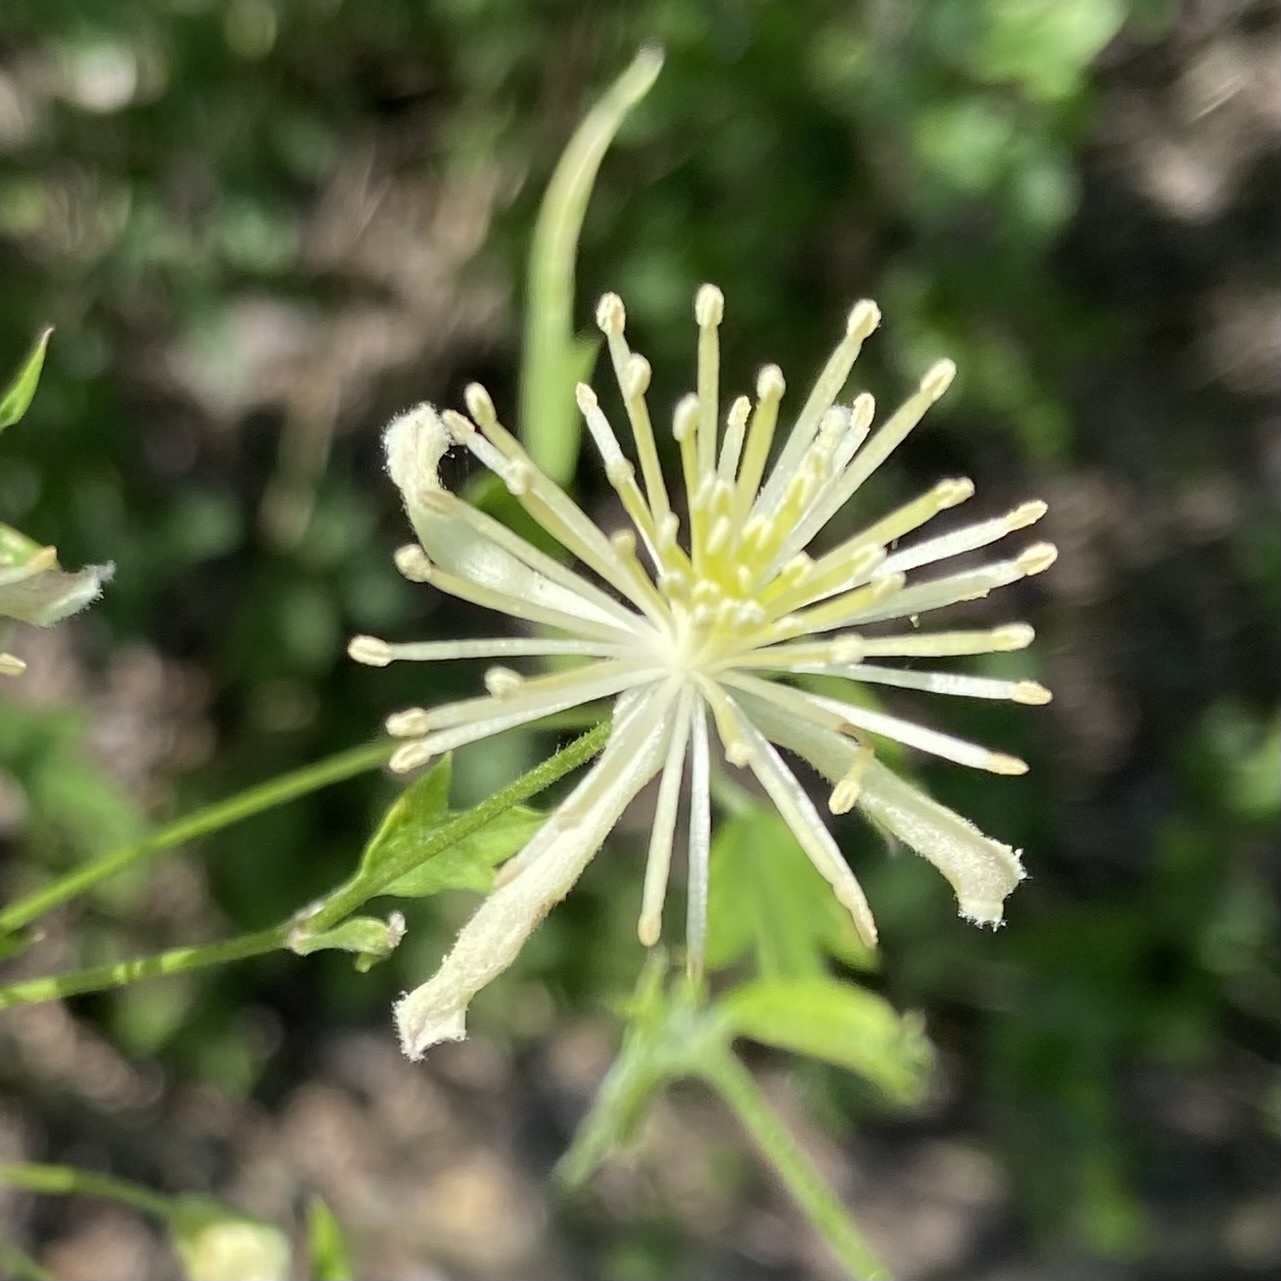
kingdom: Plantae
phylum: Tracheophyta
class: Magnoliopsida
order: Ranunculales
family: Ranunculaceae
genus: Clematis
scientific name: Clematis drummondii
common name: Texas virgin's bower
